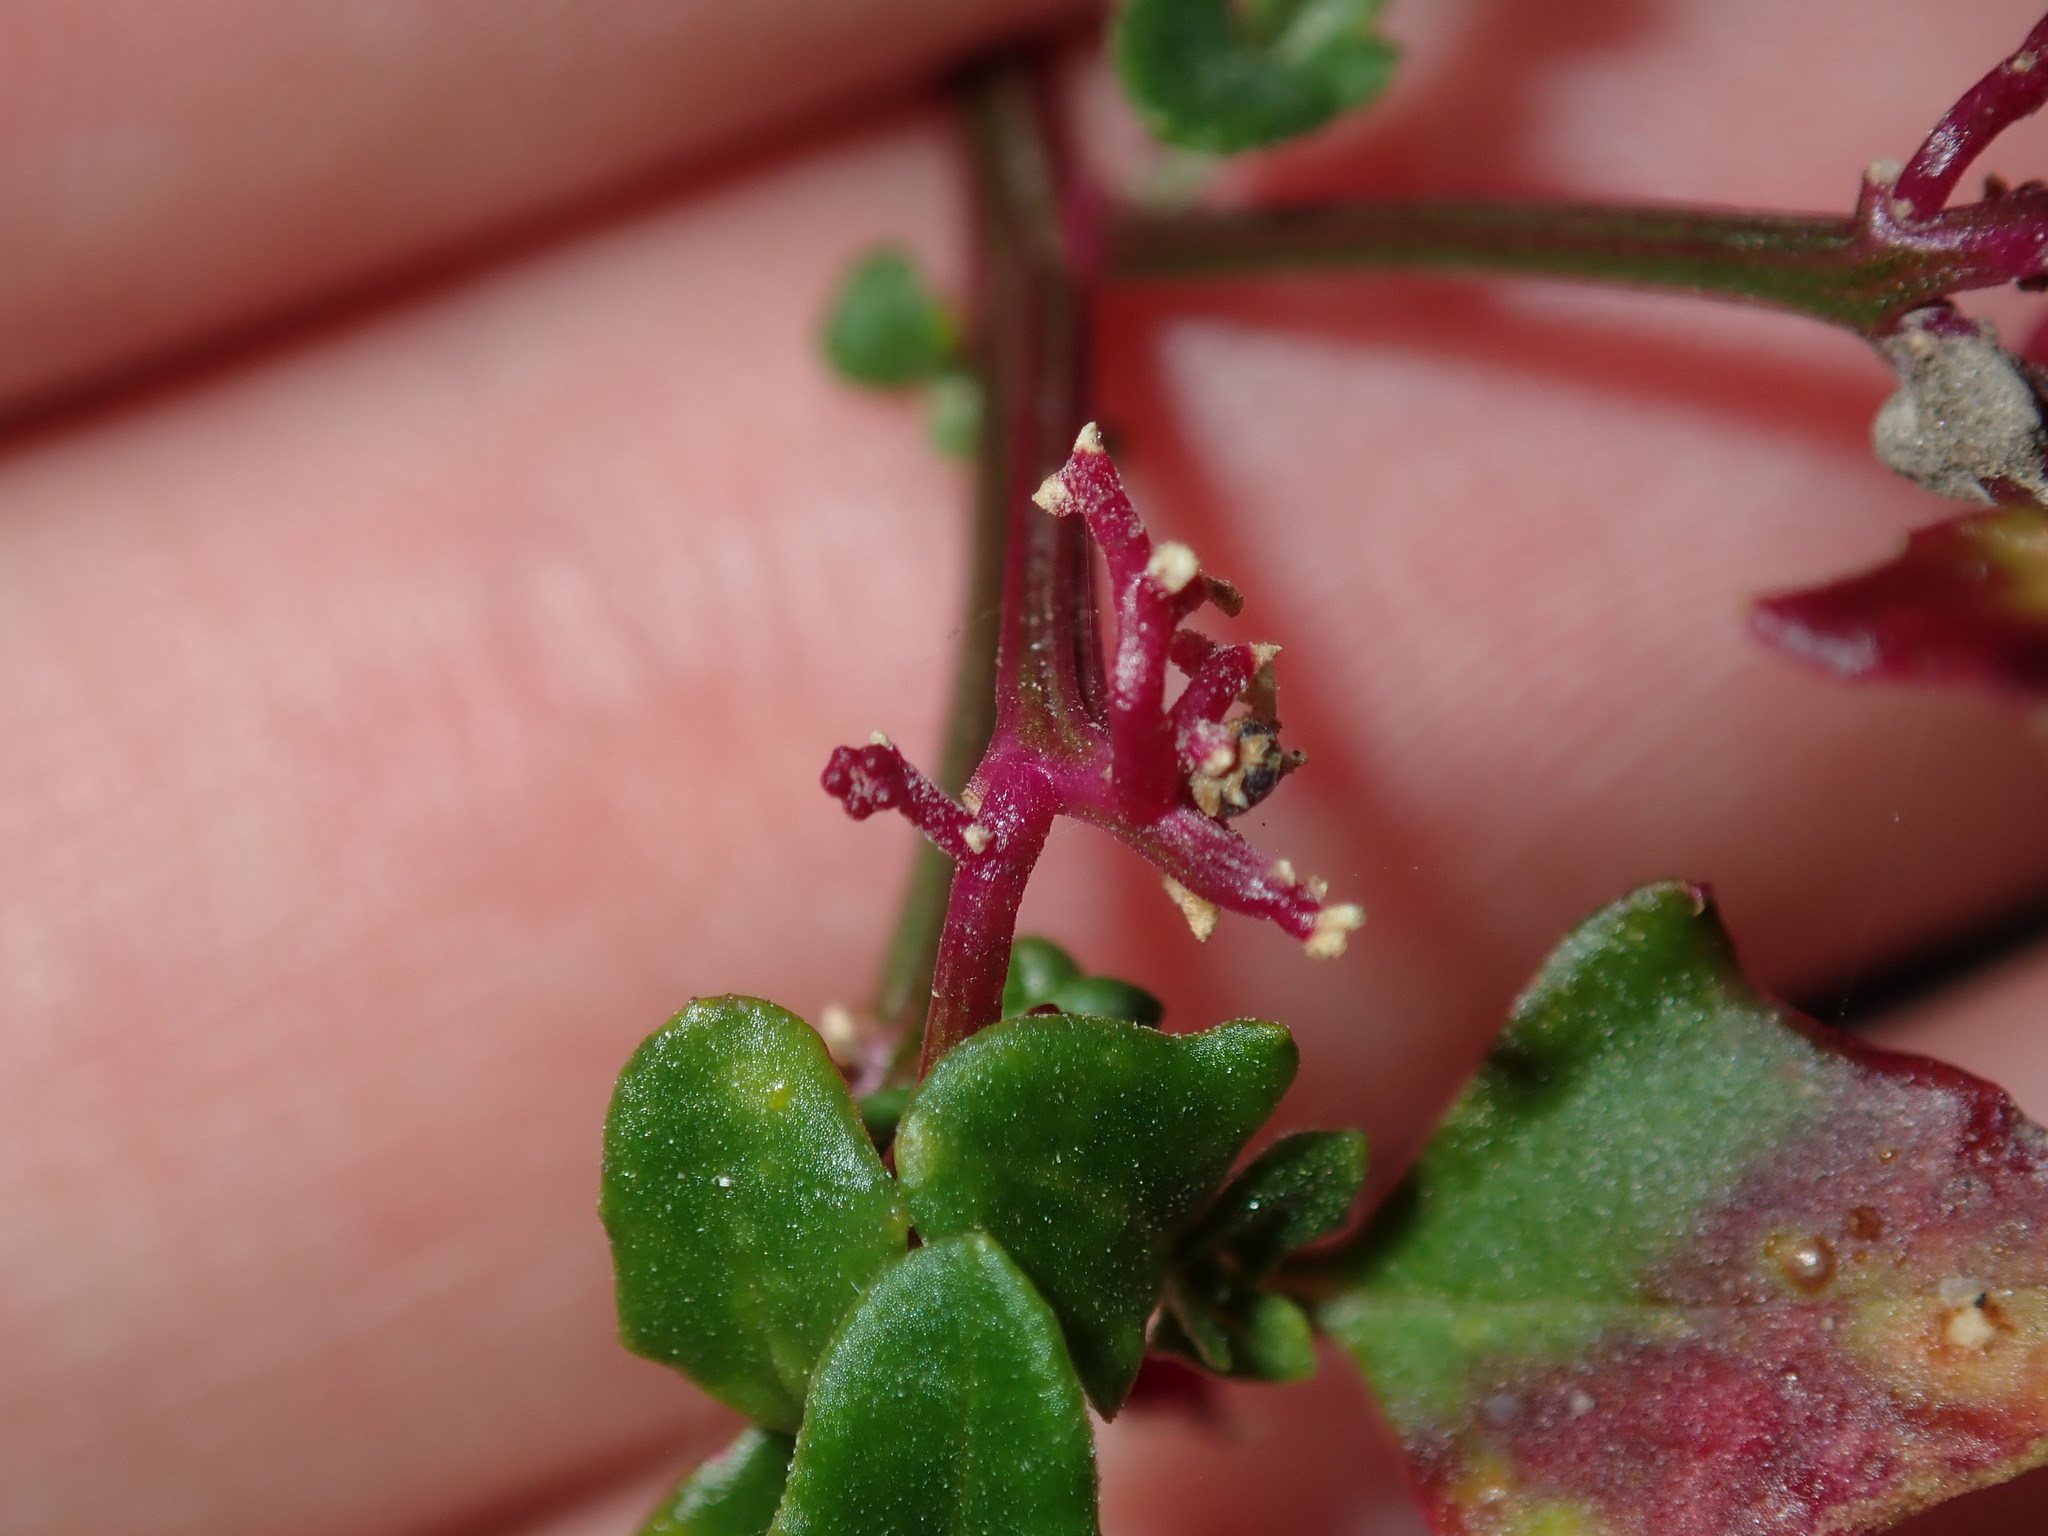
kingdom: Plantae
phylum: Tracheophyta
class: Magnoliopsida
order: Caryophyllales
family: Amaranthaceae
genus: Chenopodium
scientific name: Chenopodium robertianum
